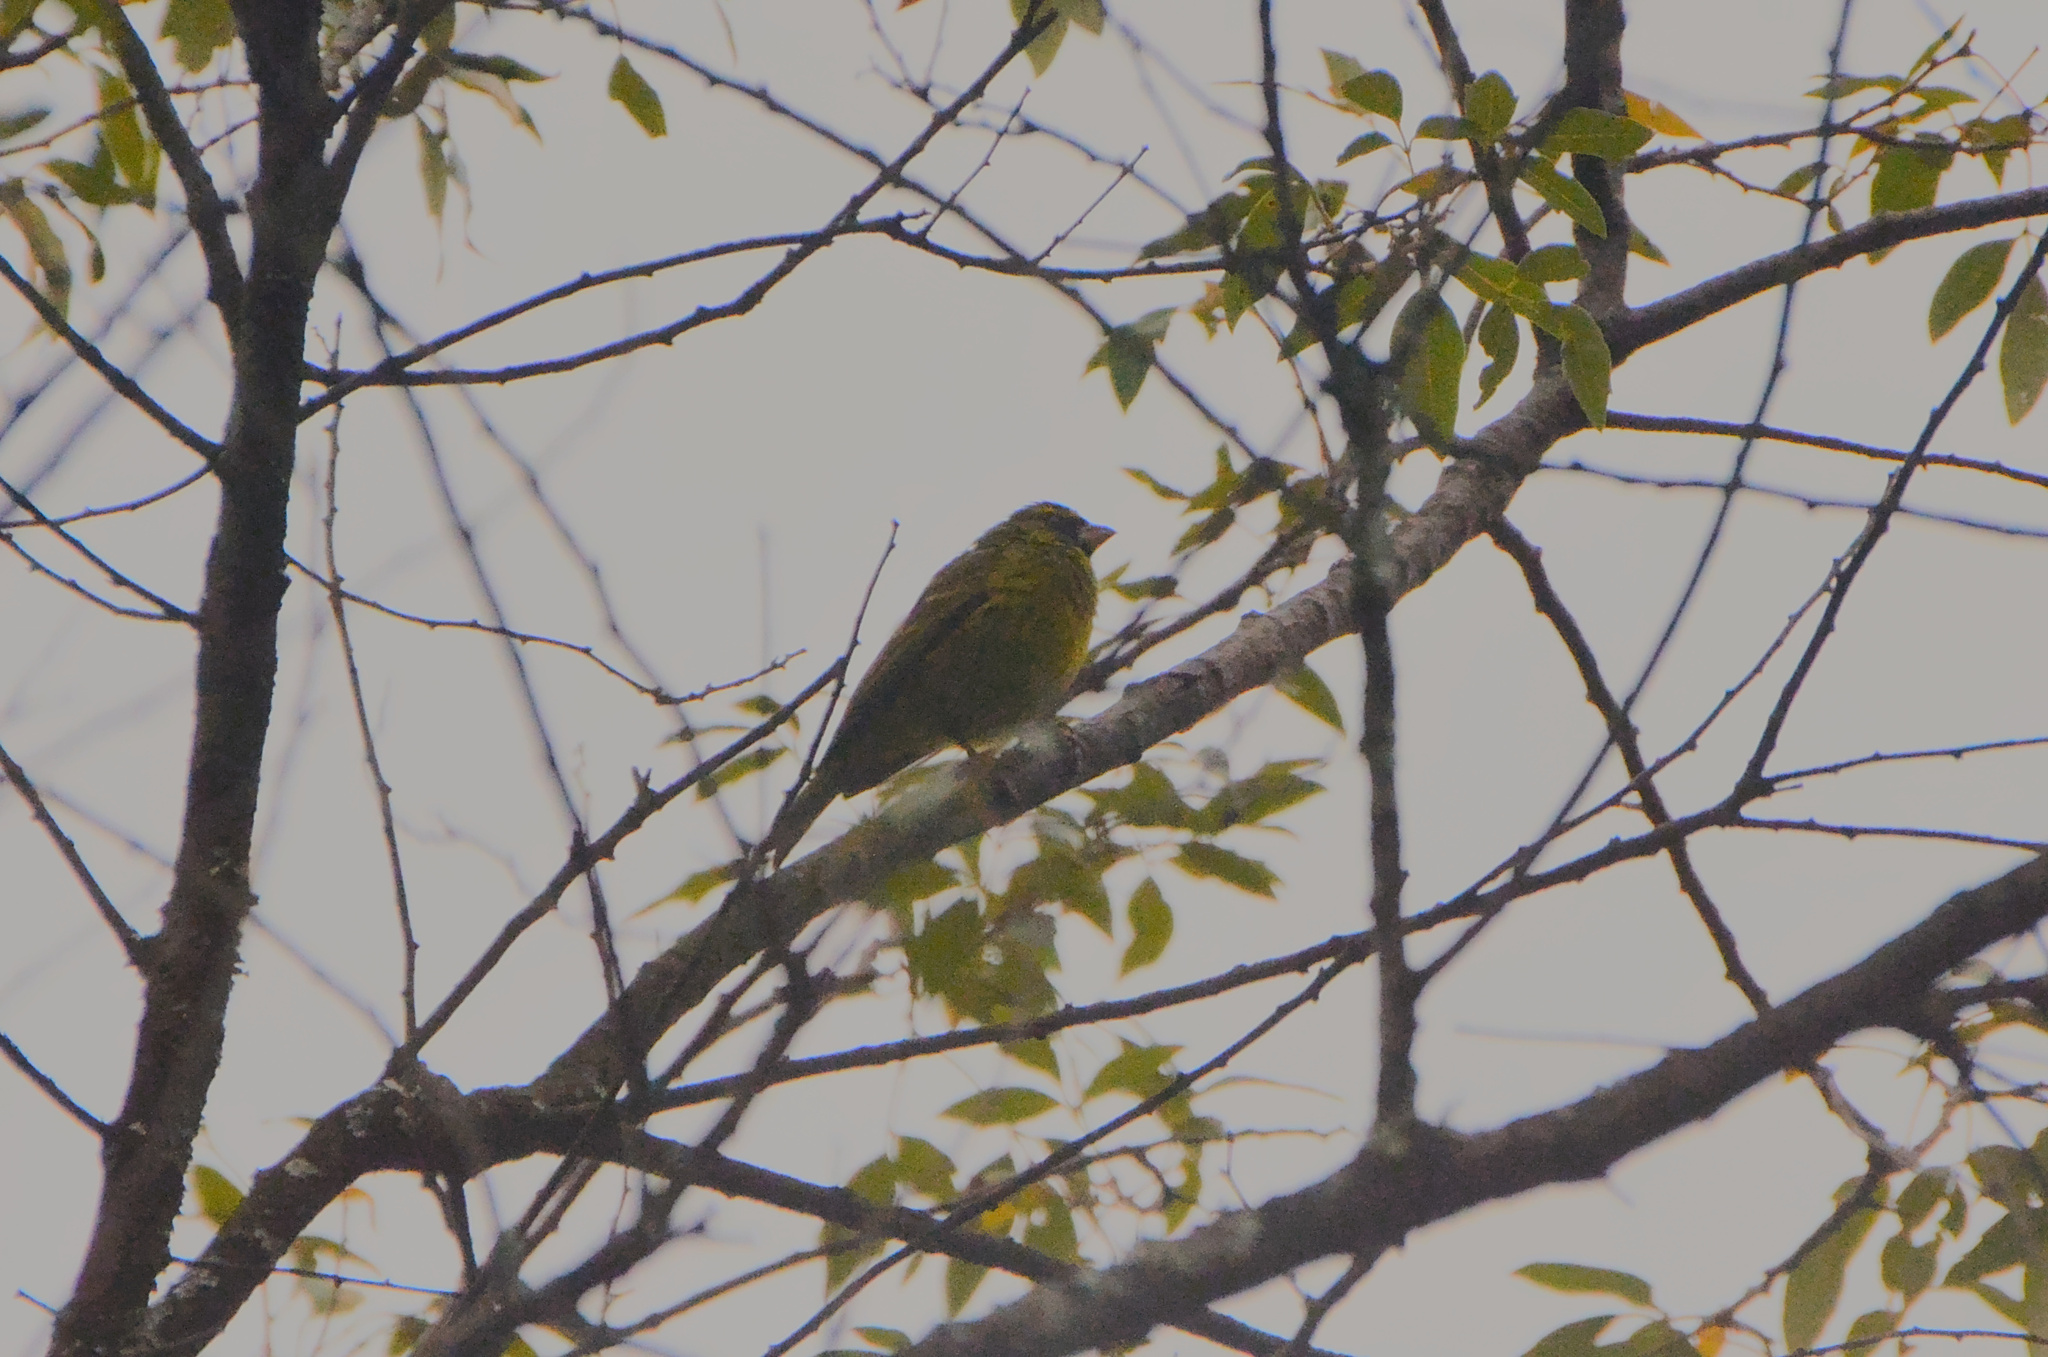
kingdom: Animalia
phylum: Chordata
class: Aves
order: Passeriformes
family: Fringillidae
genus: Crithagra
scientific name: Crithagra scotops
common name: Forest canary
